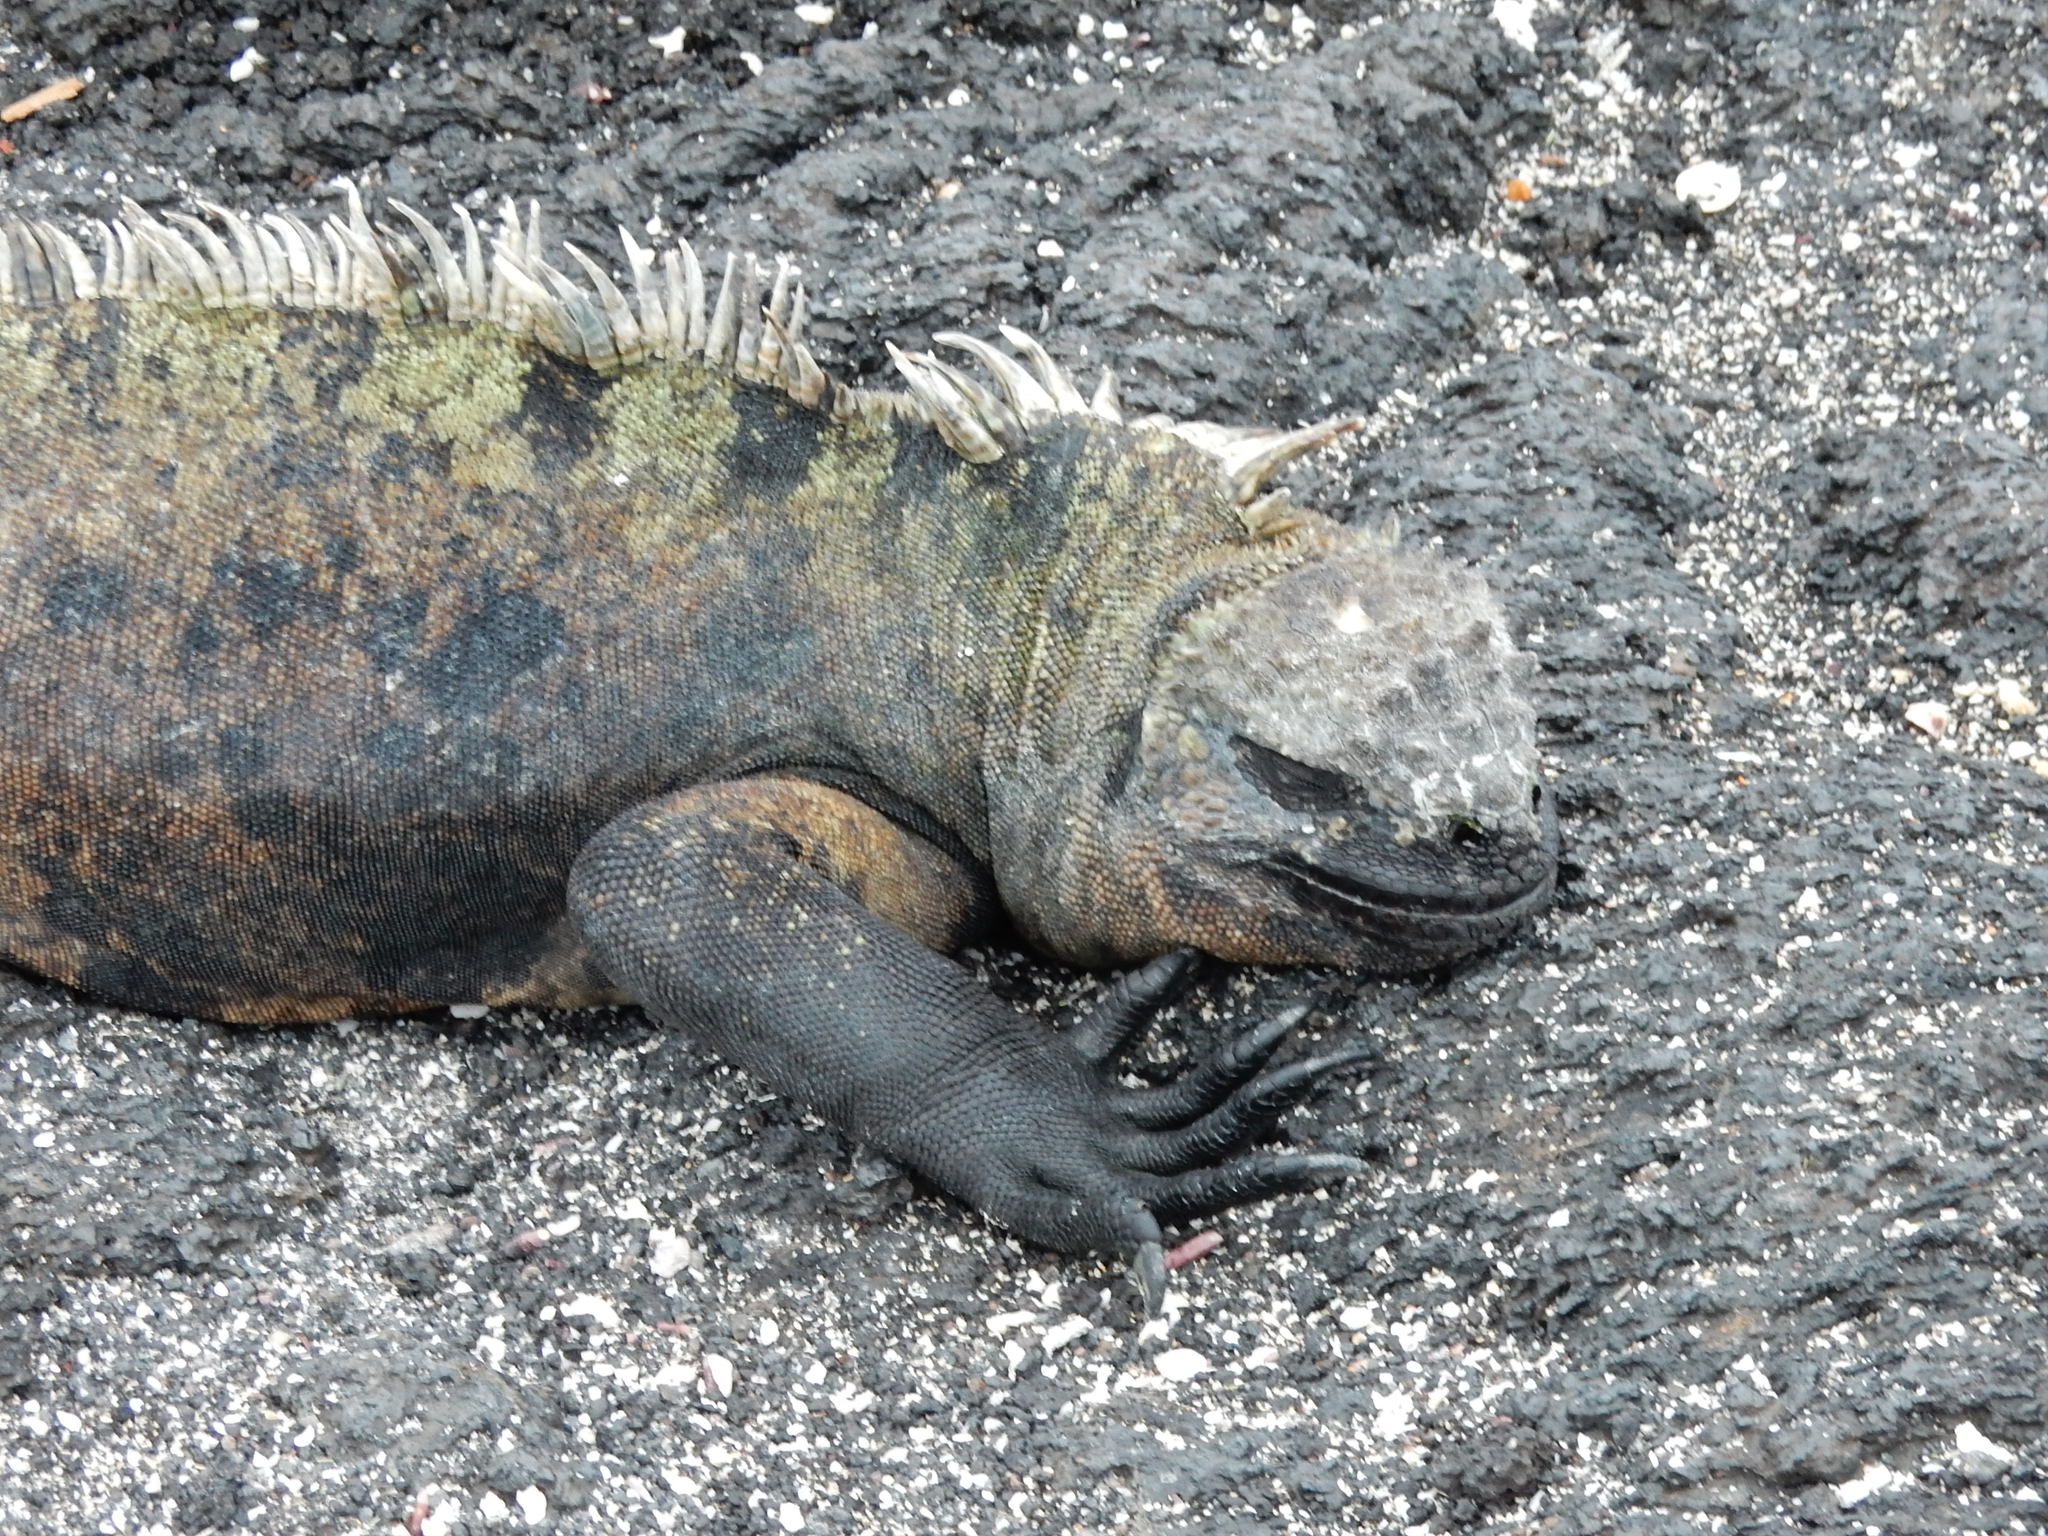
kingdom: Animalia
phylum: Chordata
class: Squamata
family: Iguanidae
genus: Amblyrhynchus
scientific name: Amblyrhynchus cristatus
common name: Marine iguana
